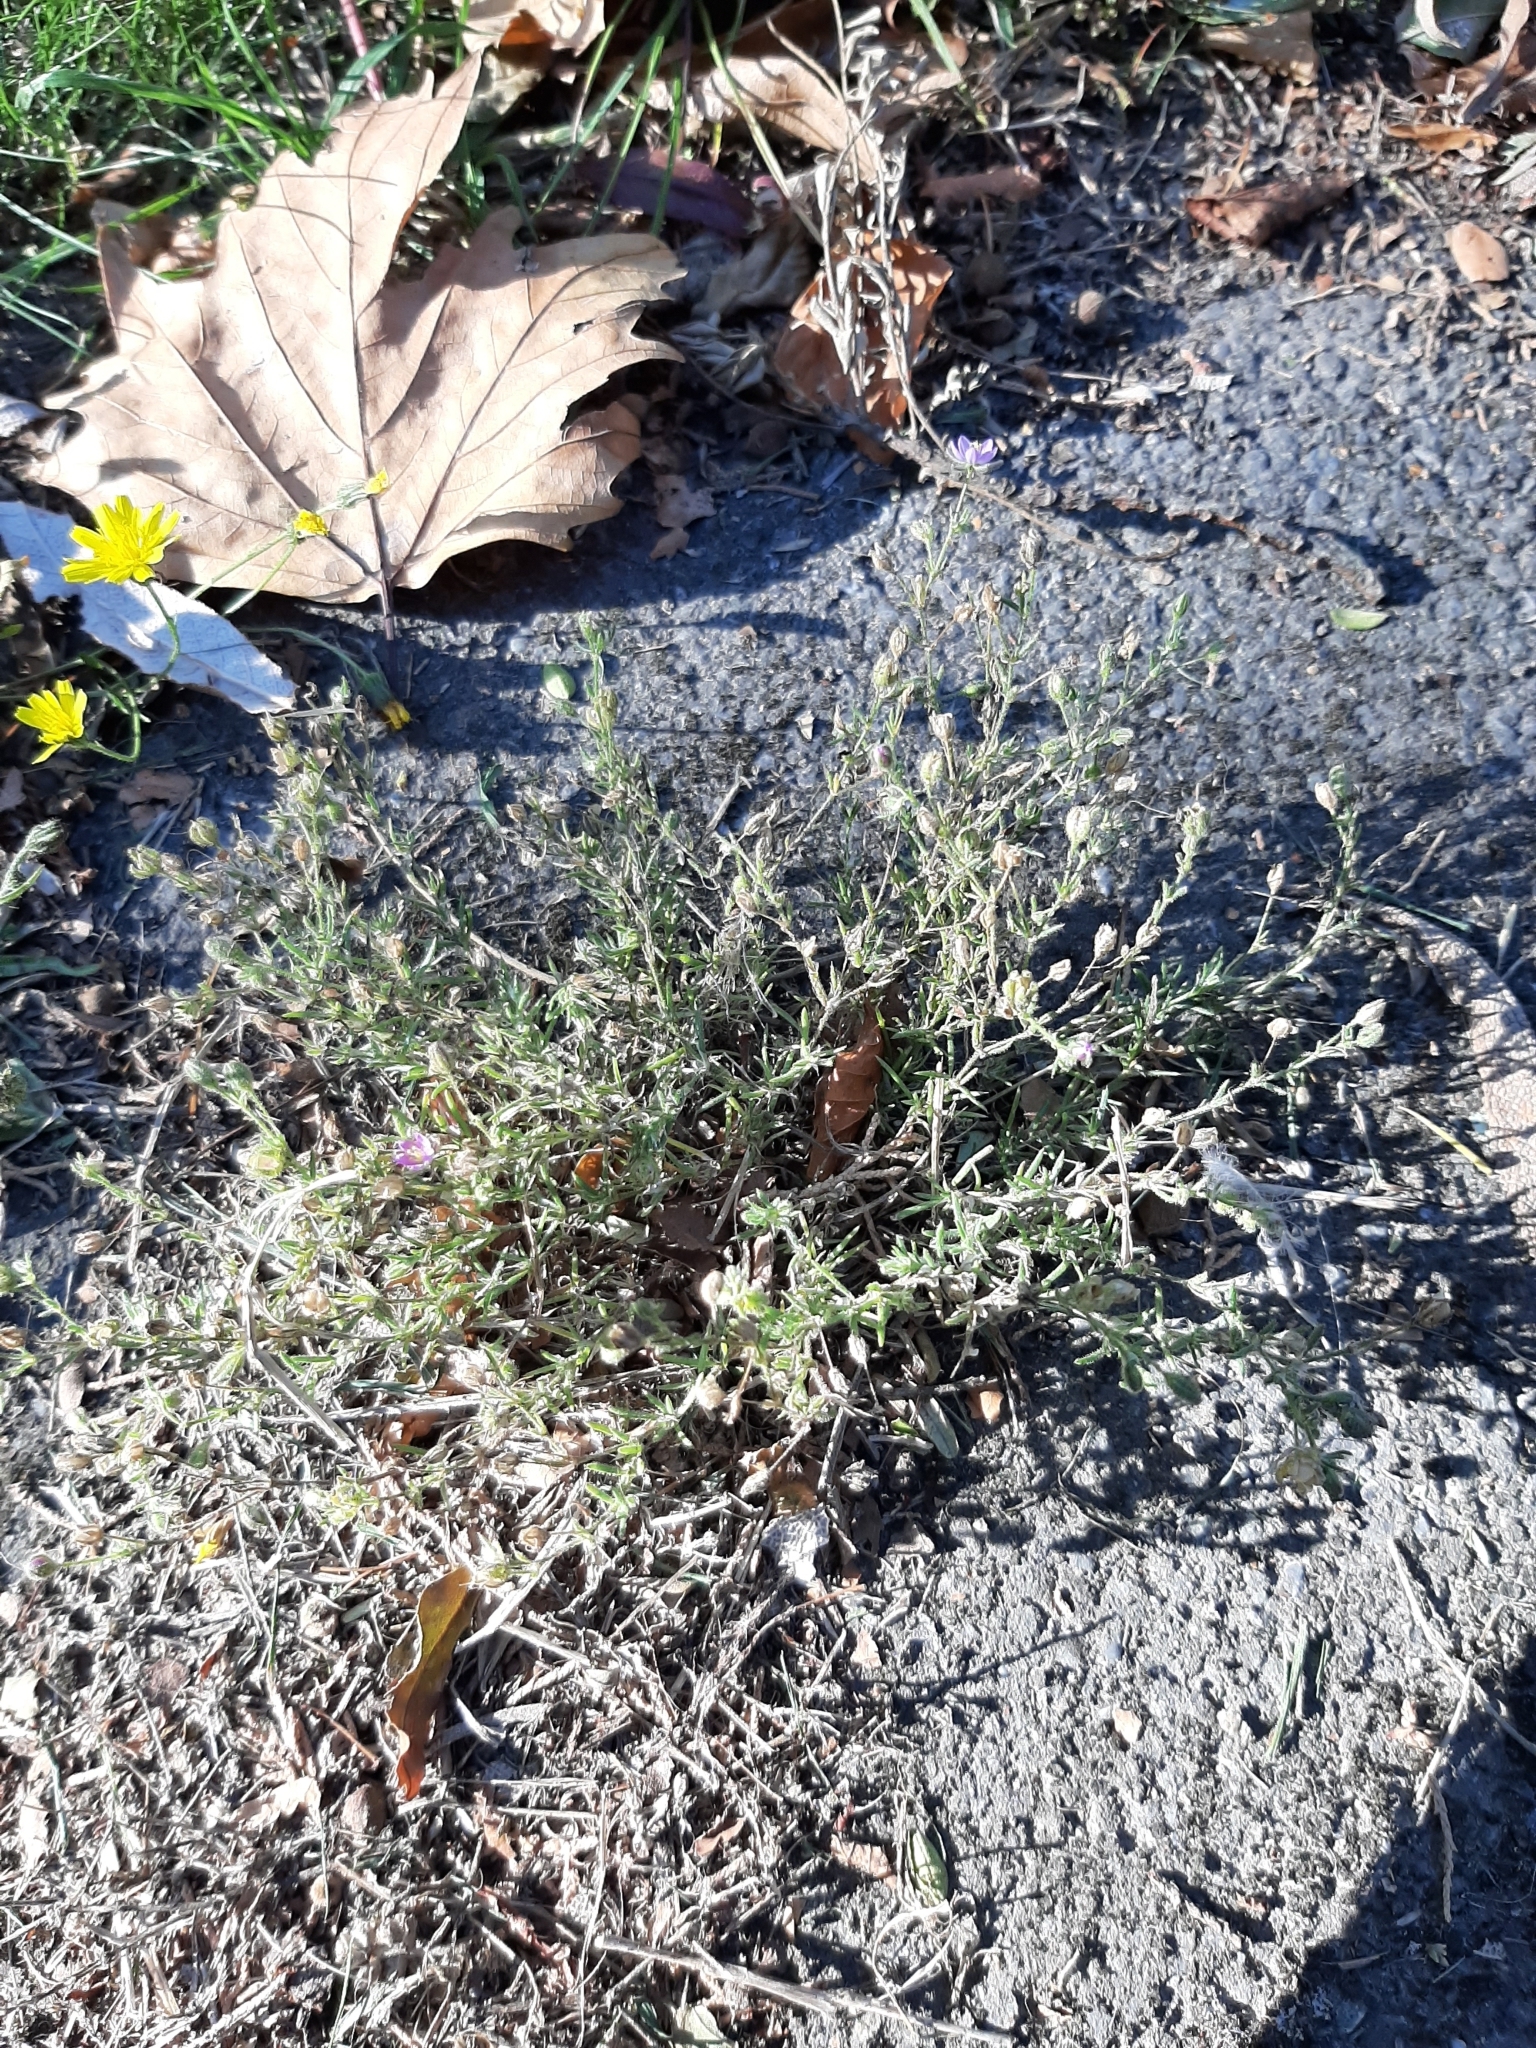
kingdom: Plantae
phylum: Tracheophyta
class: Magnoliopsida
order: Caryophyllales
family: Caryophyllaceae
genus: Spergula
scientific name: Spergula arvensis
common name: Corn spurrey
